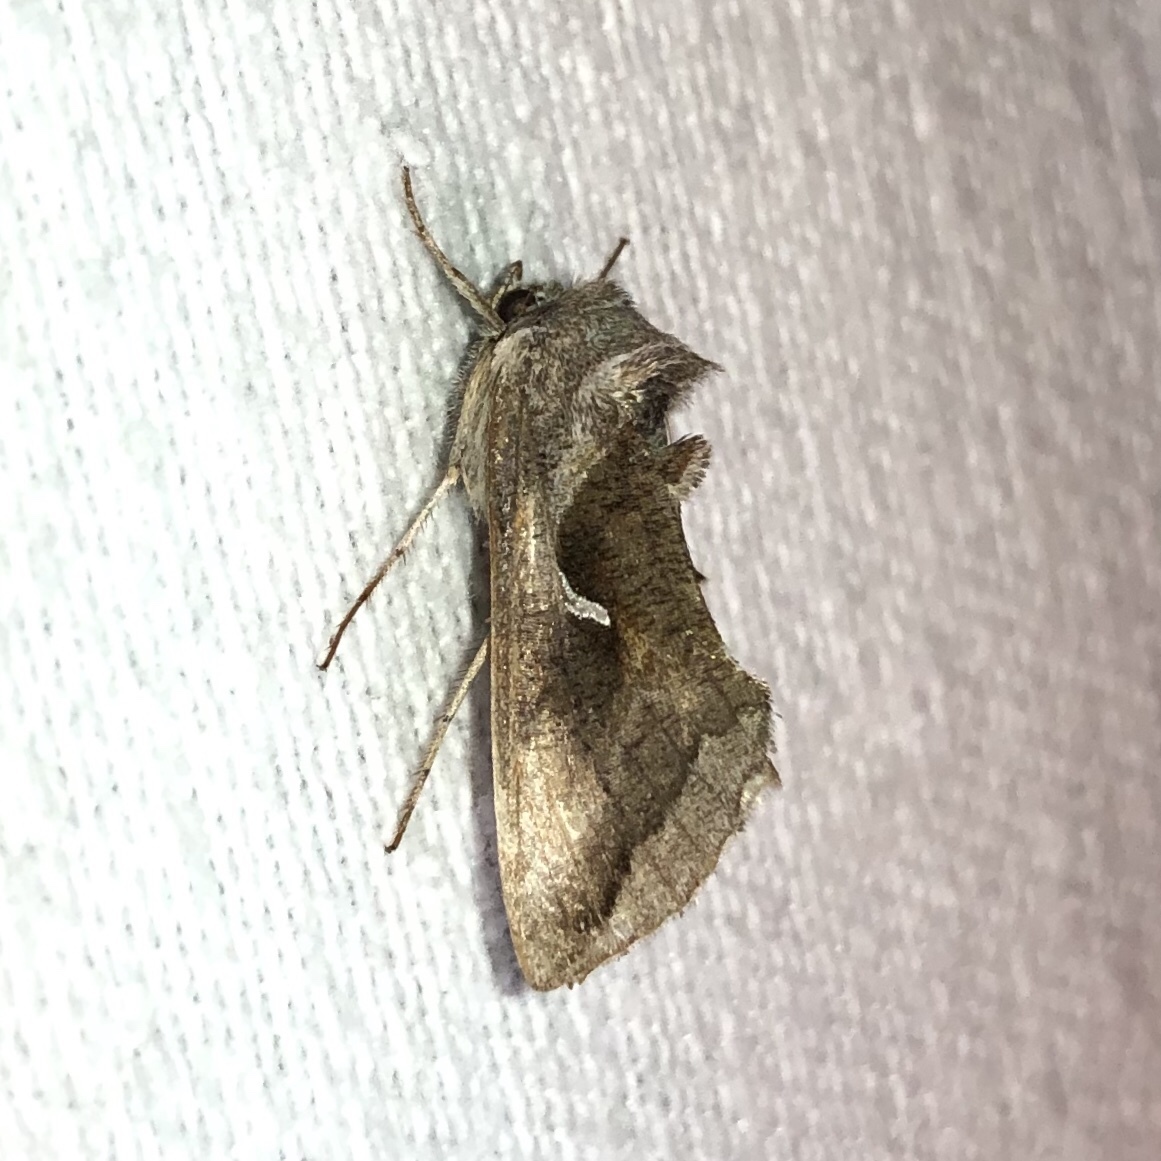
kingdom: Animalia
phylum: Arthropoda
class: Insecta
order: Lepidoptera
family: Noctuidae
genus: Anagrapha
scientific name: Anagrapha falcifera
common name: Celery looper
